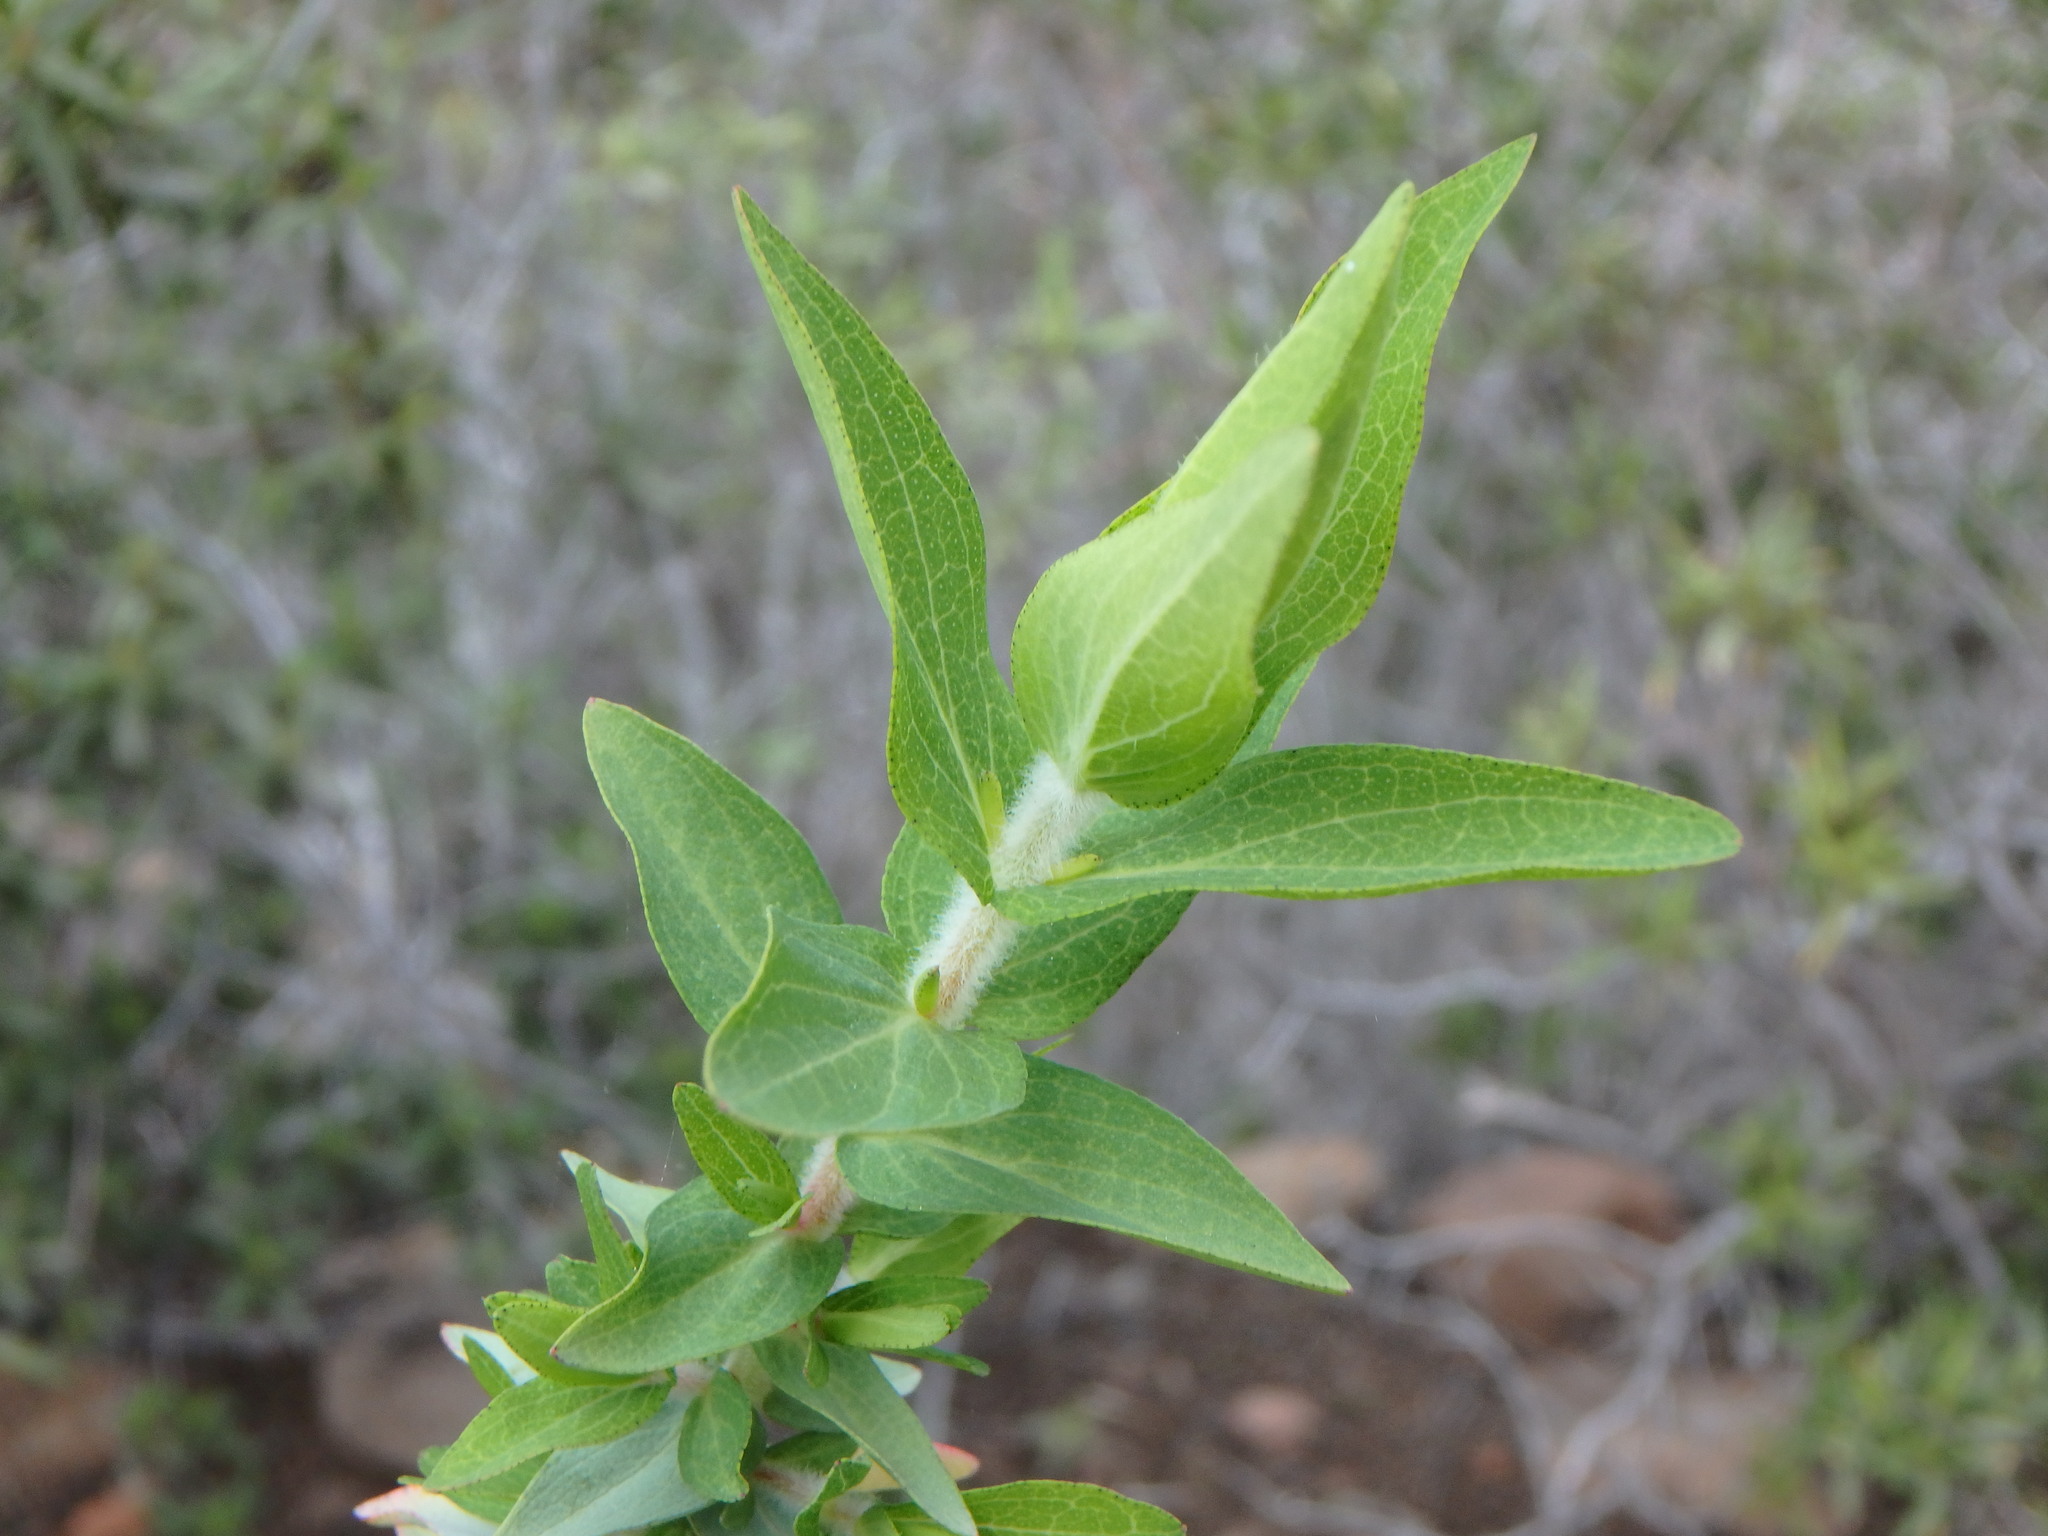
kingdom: Plantae
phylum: Tracheophyta
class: Magnoliopsida
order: Malpighiales
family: Hypericaceae
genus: Hypericum
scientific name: Hypericum reflexum
